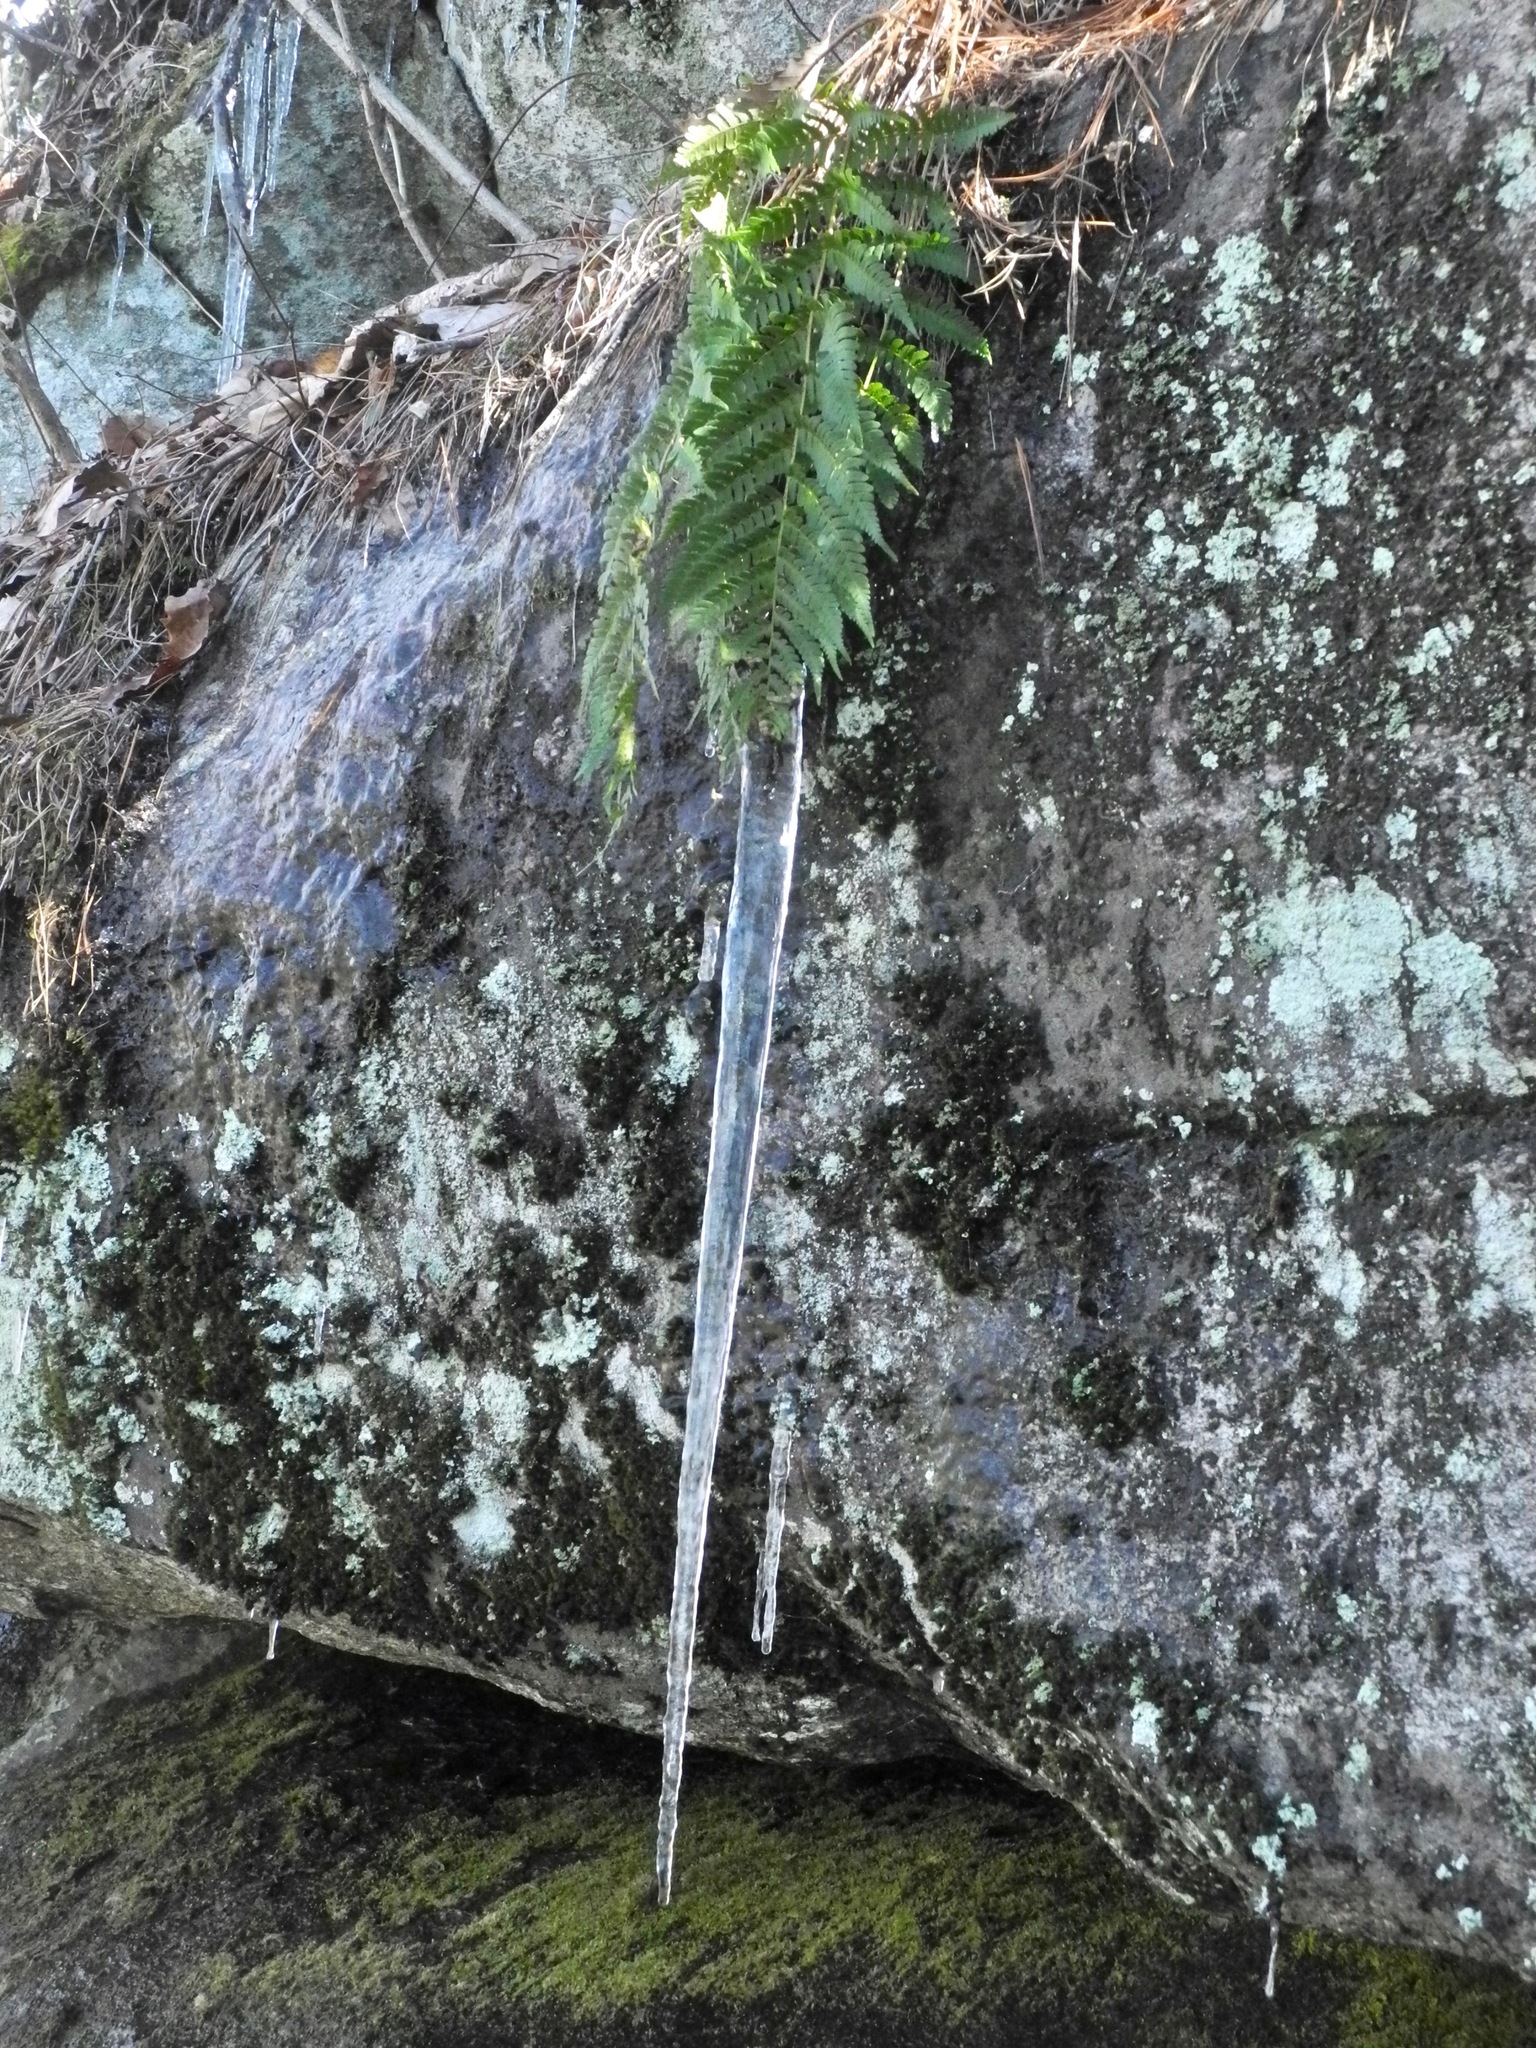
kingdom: Plantae
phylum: Tracheophyta
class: Polypodiopsida
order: Polypodiales
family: Dryopteridaceae
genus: Dryopteris
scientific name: Dryopteris marginalis
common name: Marginal wood fern
